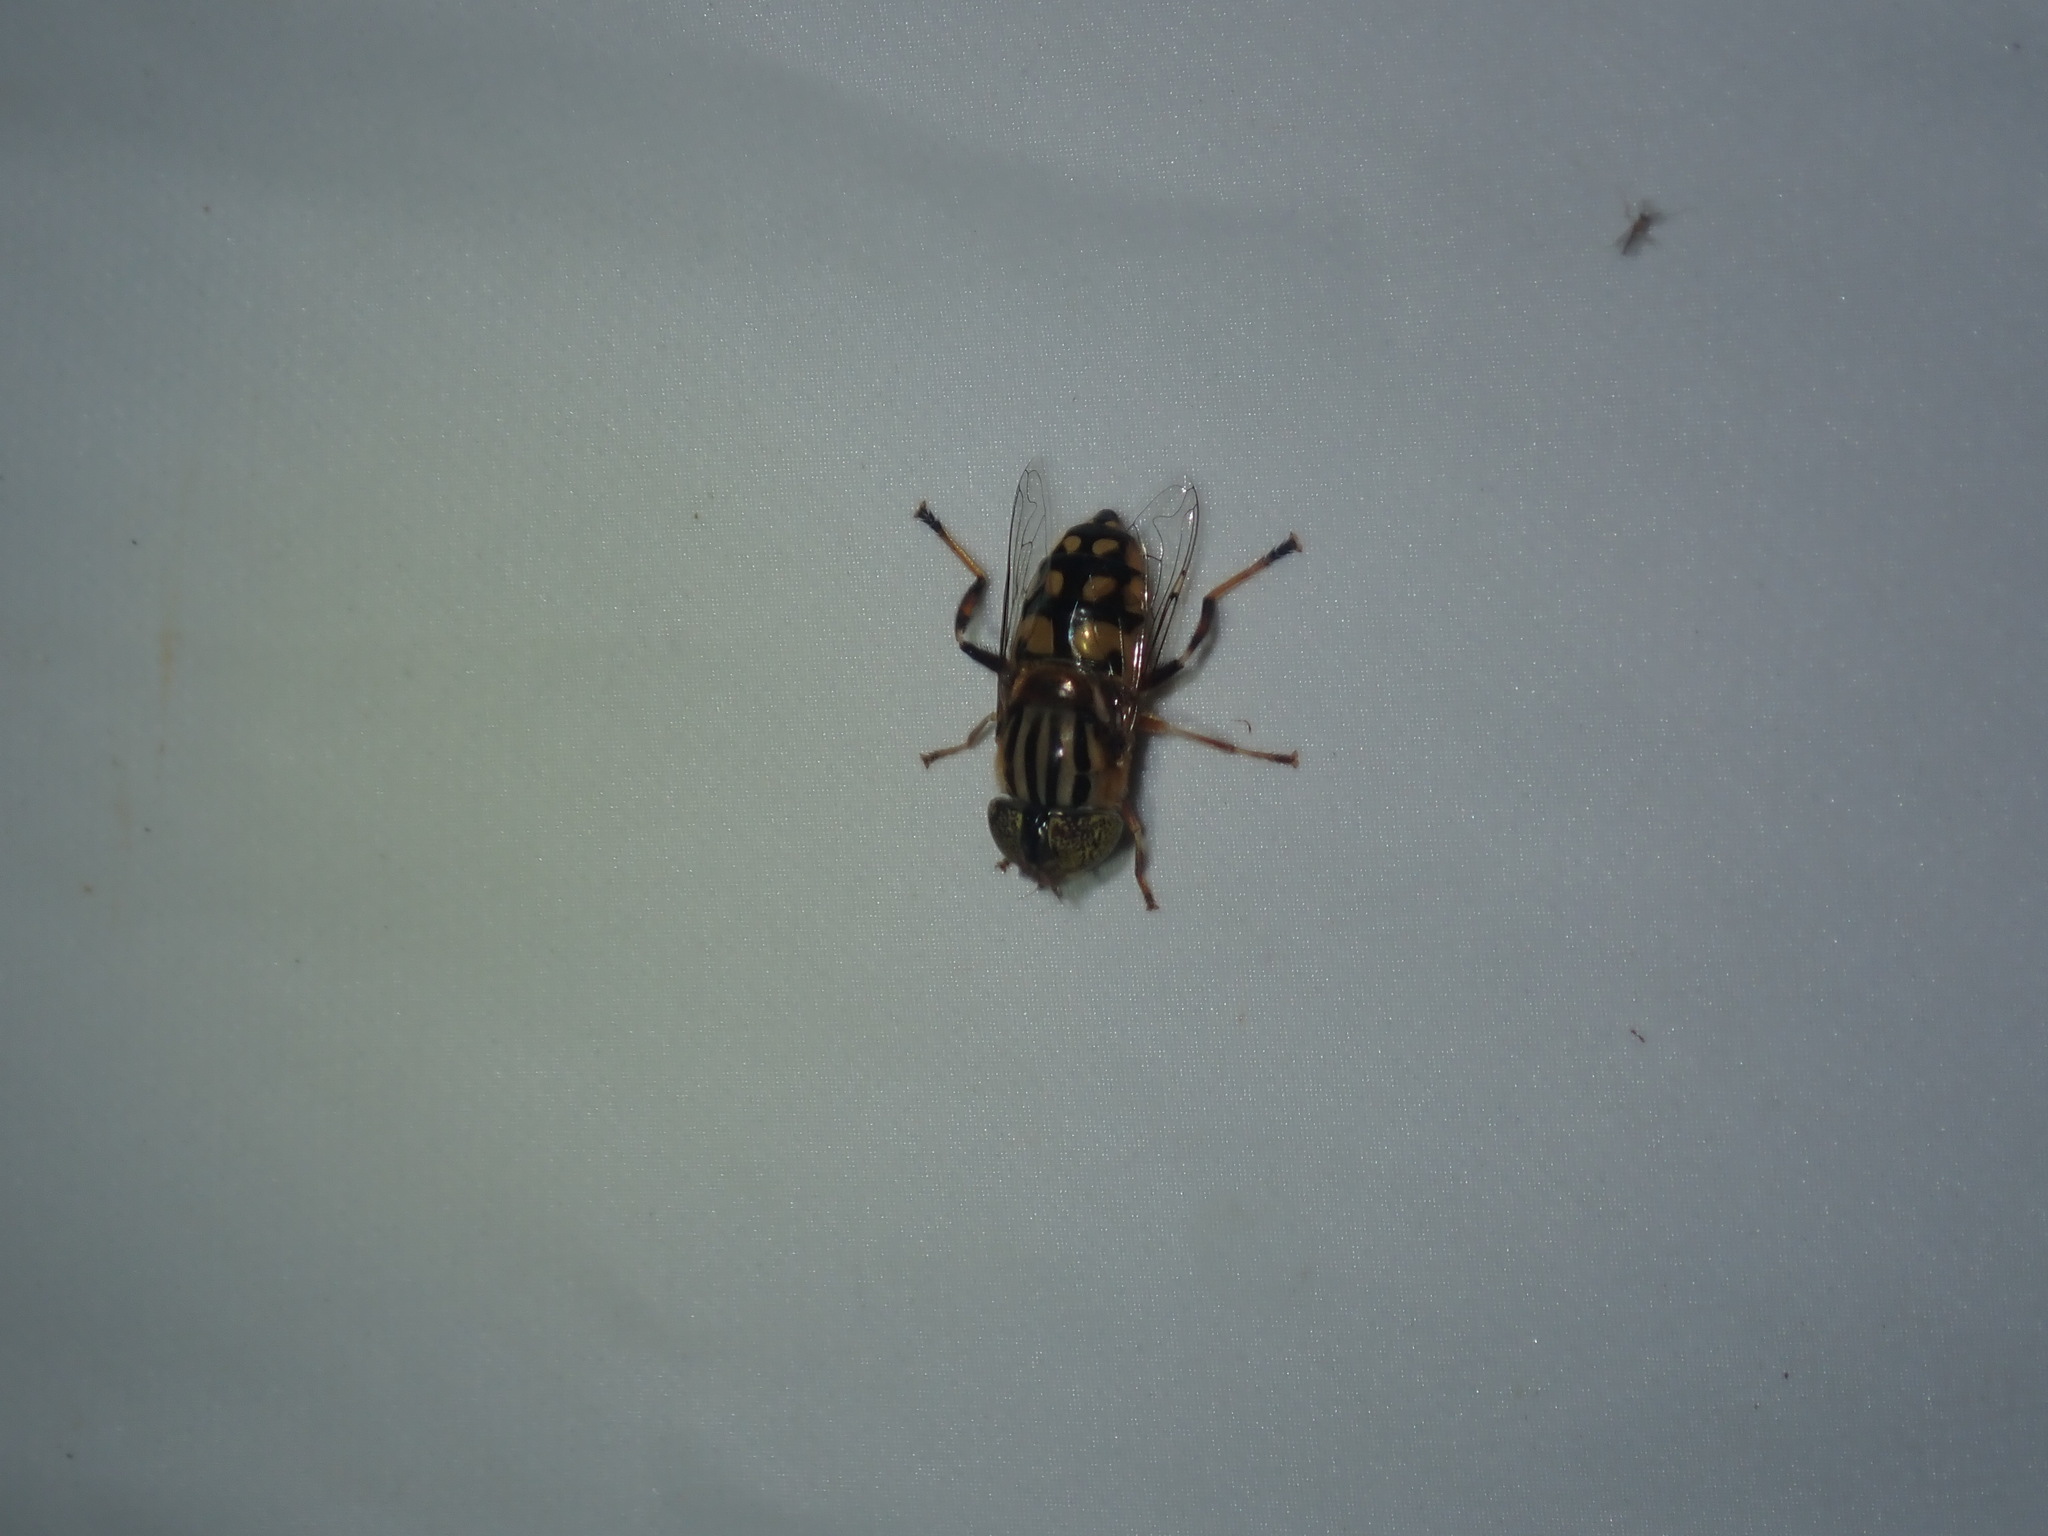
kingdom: Animalia
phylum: Arthropoda
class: Insecta
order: Diptera
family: Syrphidae
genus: Eristalinus
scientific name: Eristalinus punctulatus
